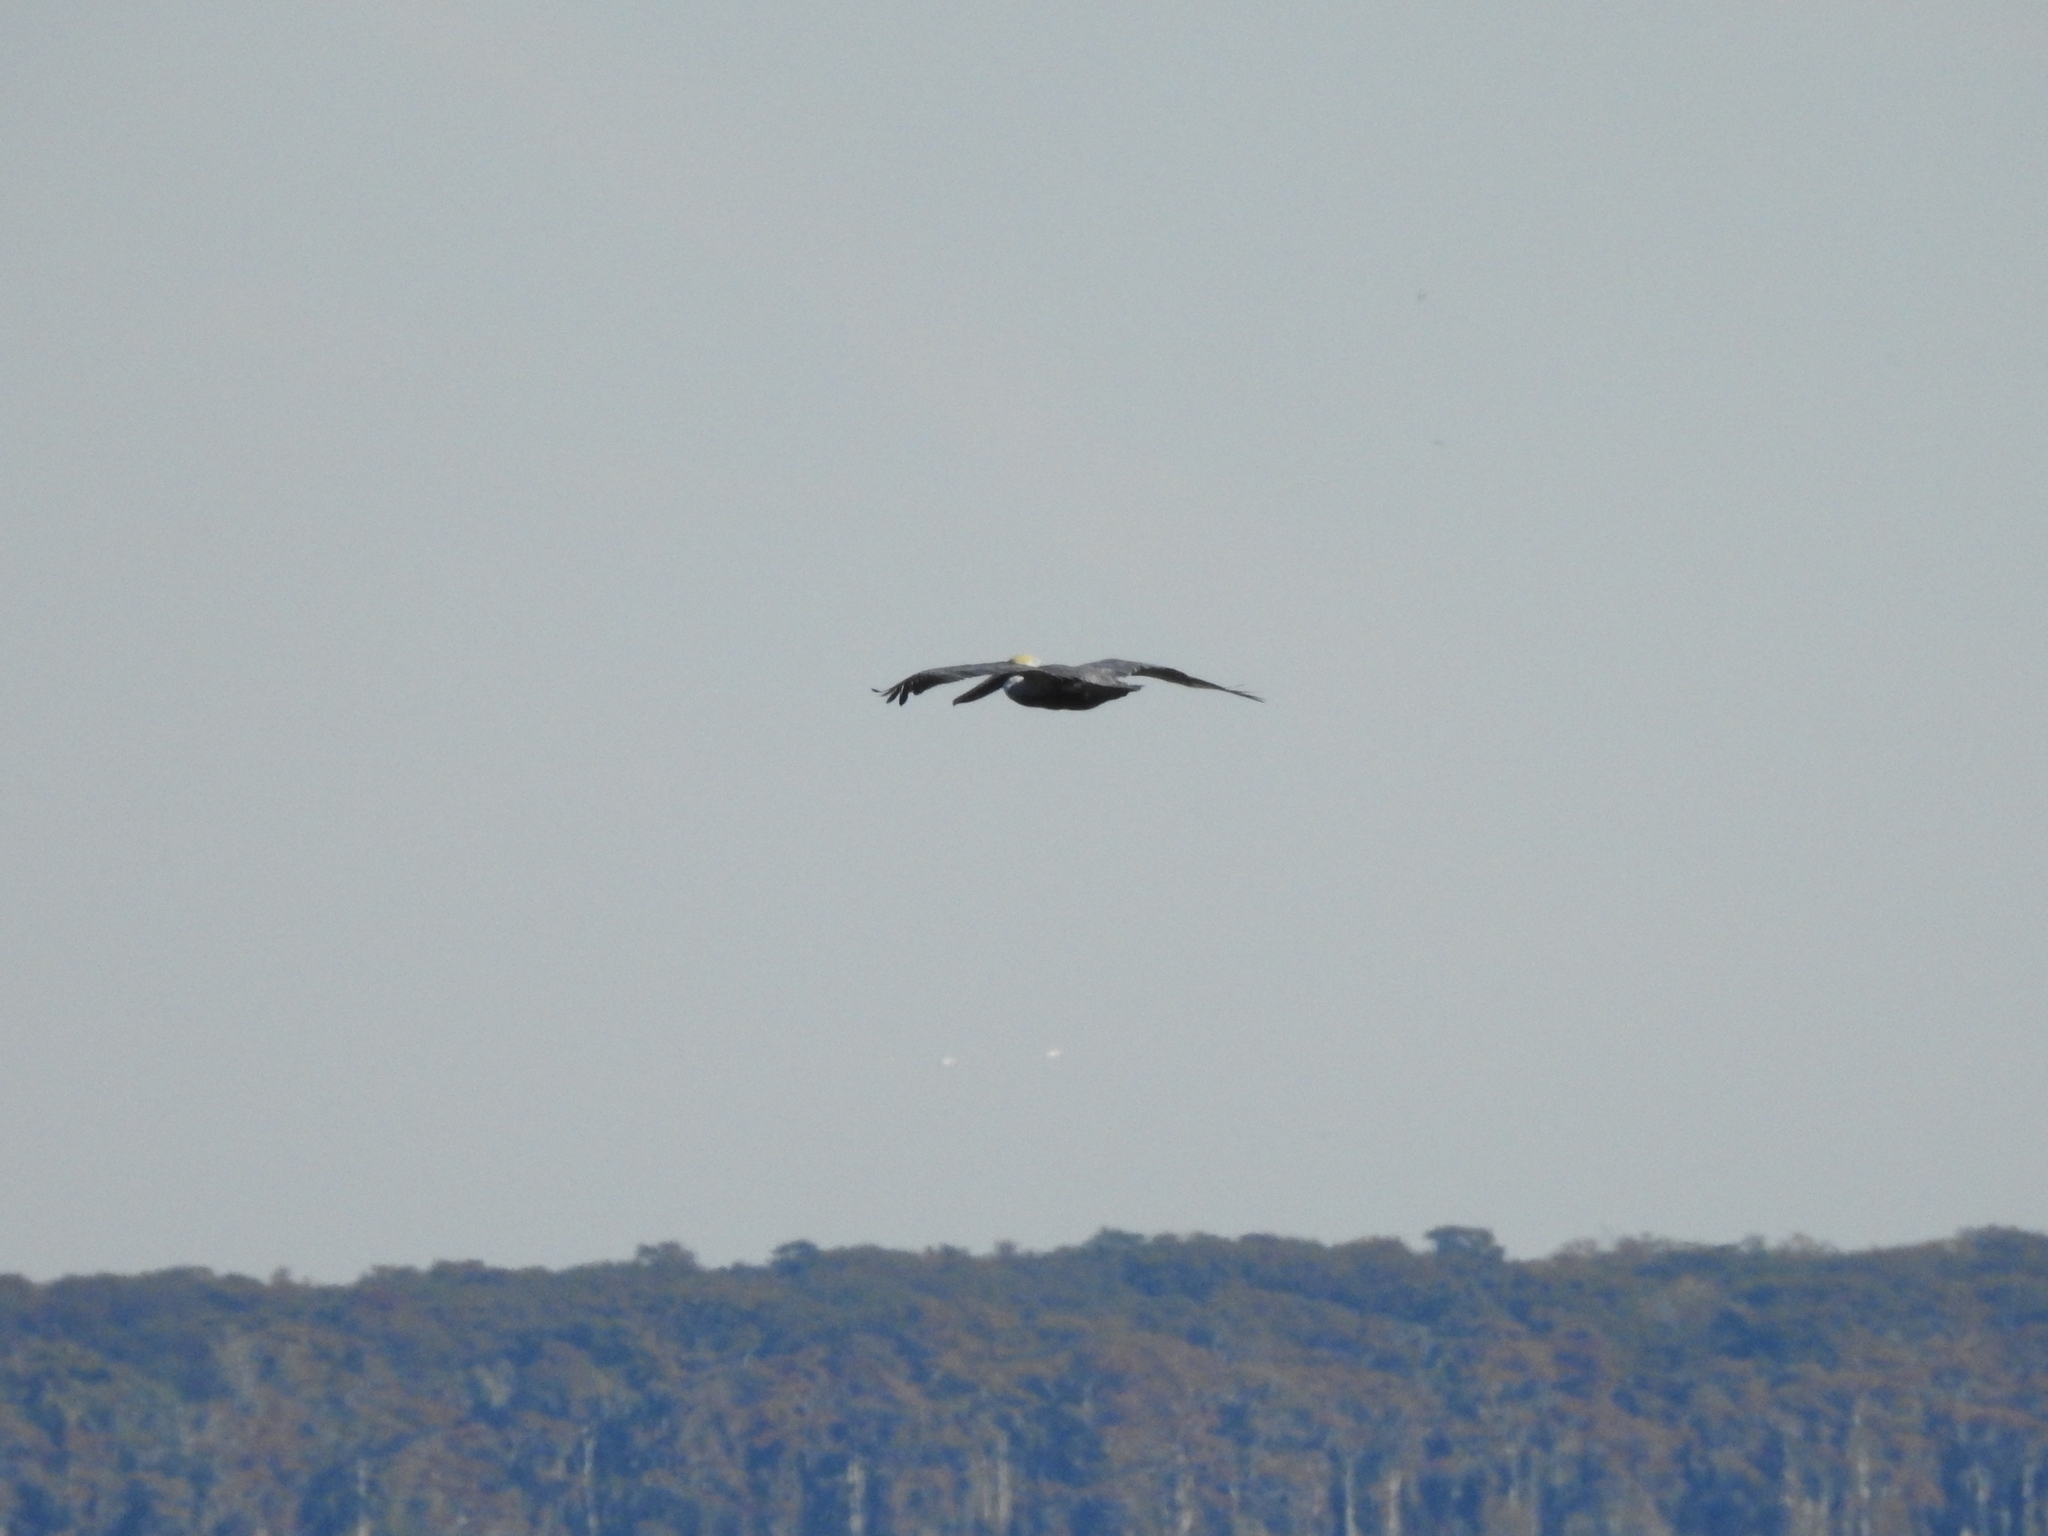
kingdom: Animalia
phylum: Chordata
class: Aves
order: Pelecaniformes
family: Pelecanidae
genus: Pelecanus
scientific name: Pelecanus occidentalis
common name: Brown pelican
